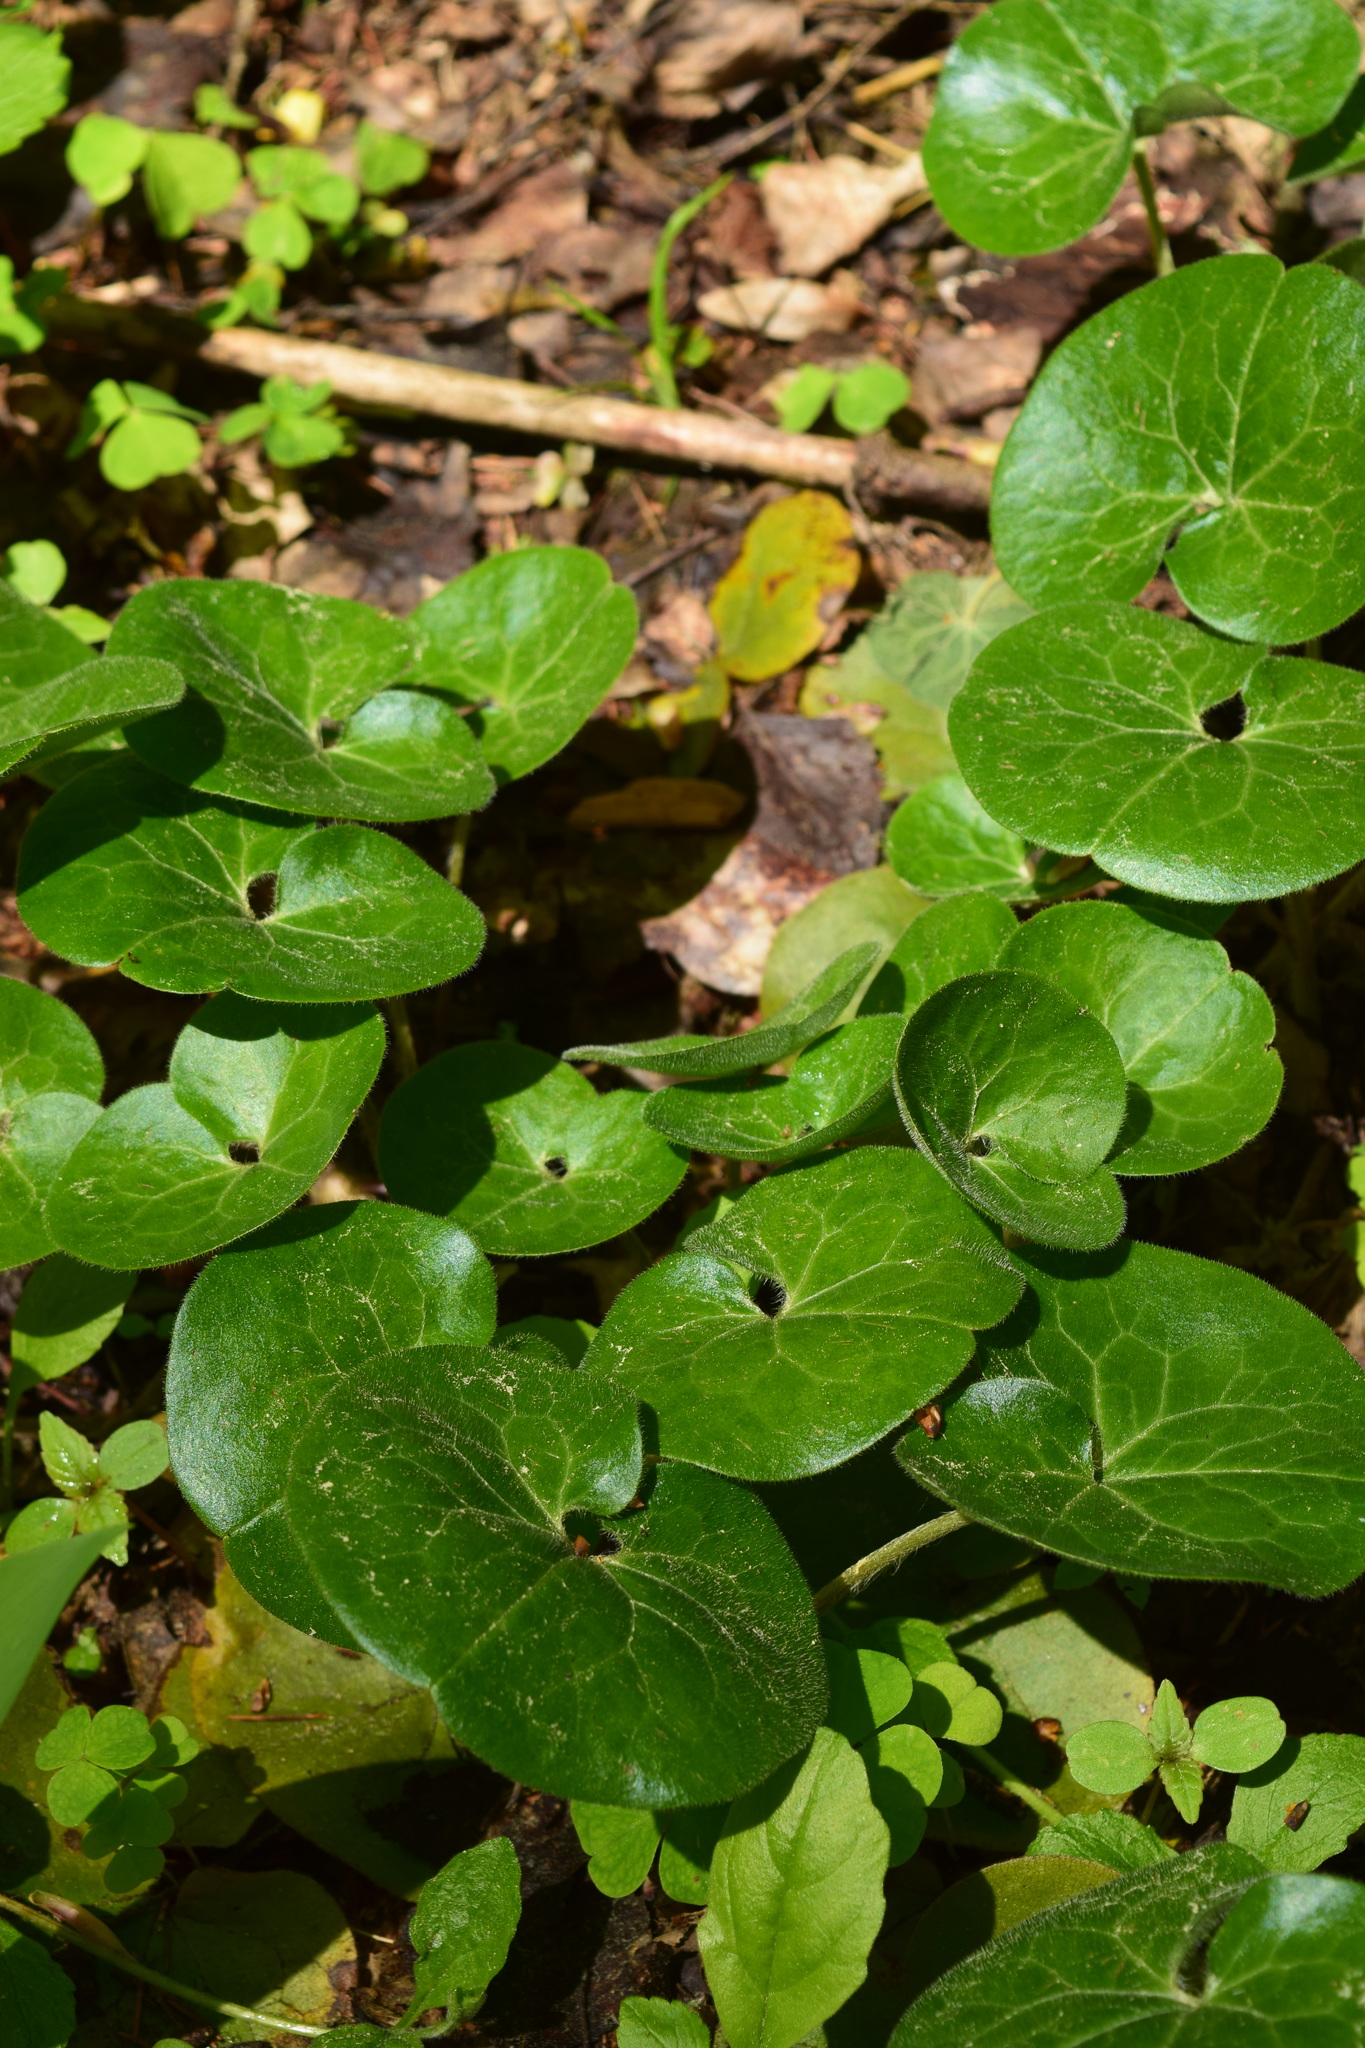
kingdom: Plantae
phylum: Tracheophyta
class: Magnoliopsida
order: Piperales
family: Aristolochiaceae
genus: Asarum
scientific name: Asarum europaeum
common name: Asarabacca
